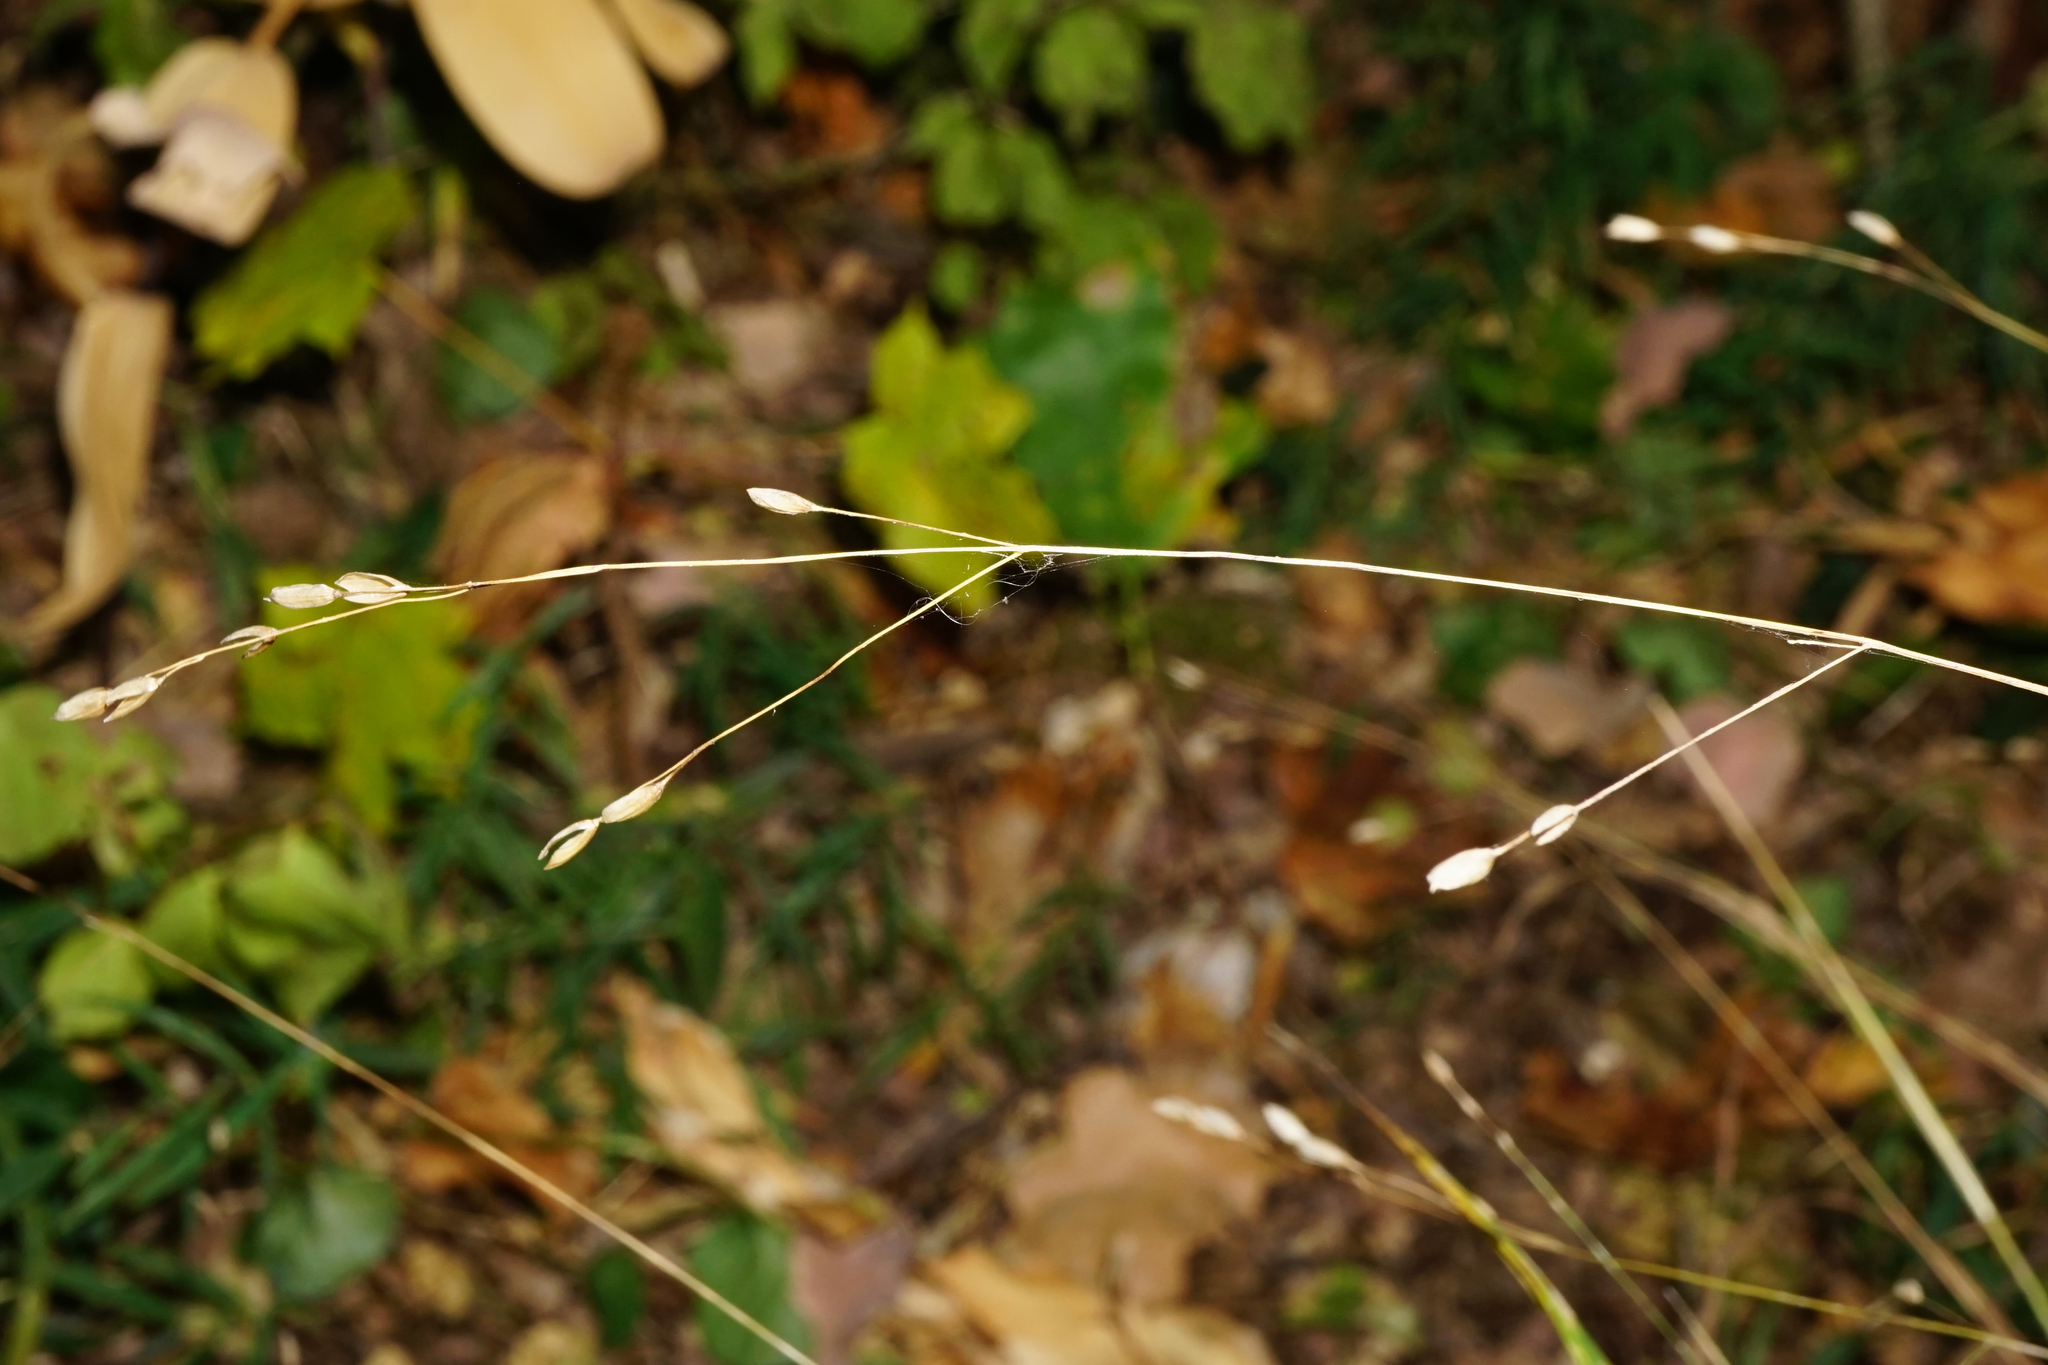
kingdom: Plantae
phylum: Tracheophyta
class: Liliopsida
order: Poales
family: Poaceae
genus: Melica
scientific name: Melica uniflora
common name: Wood melick
